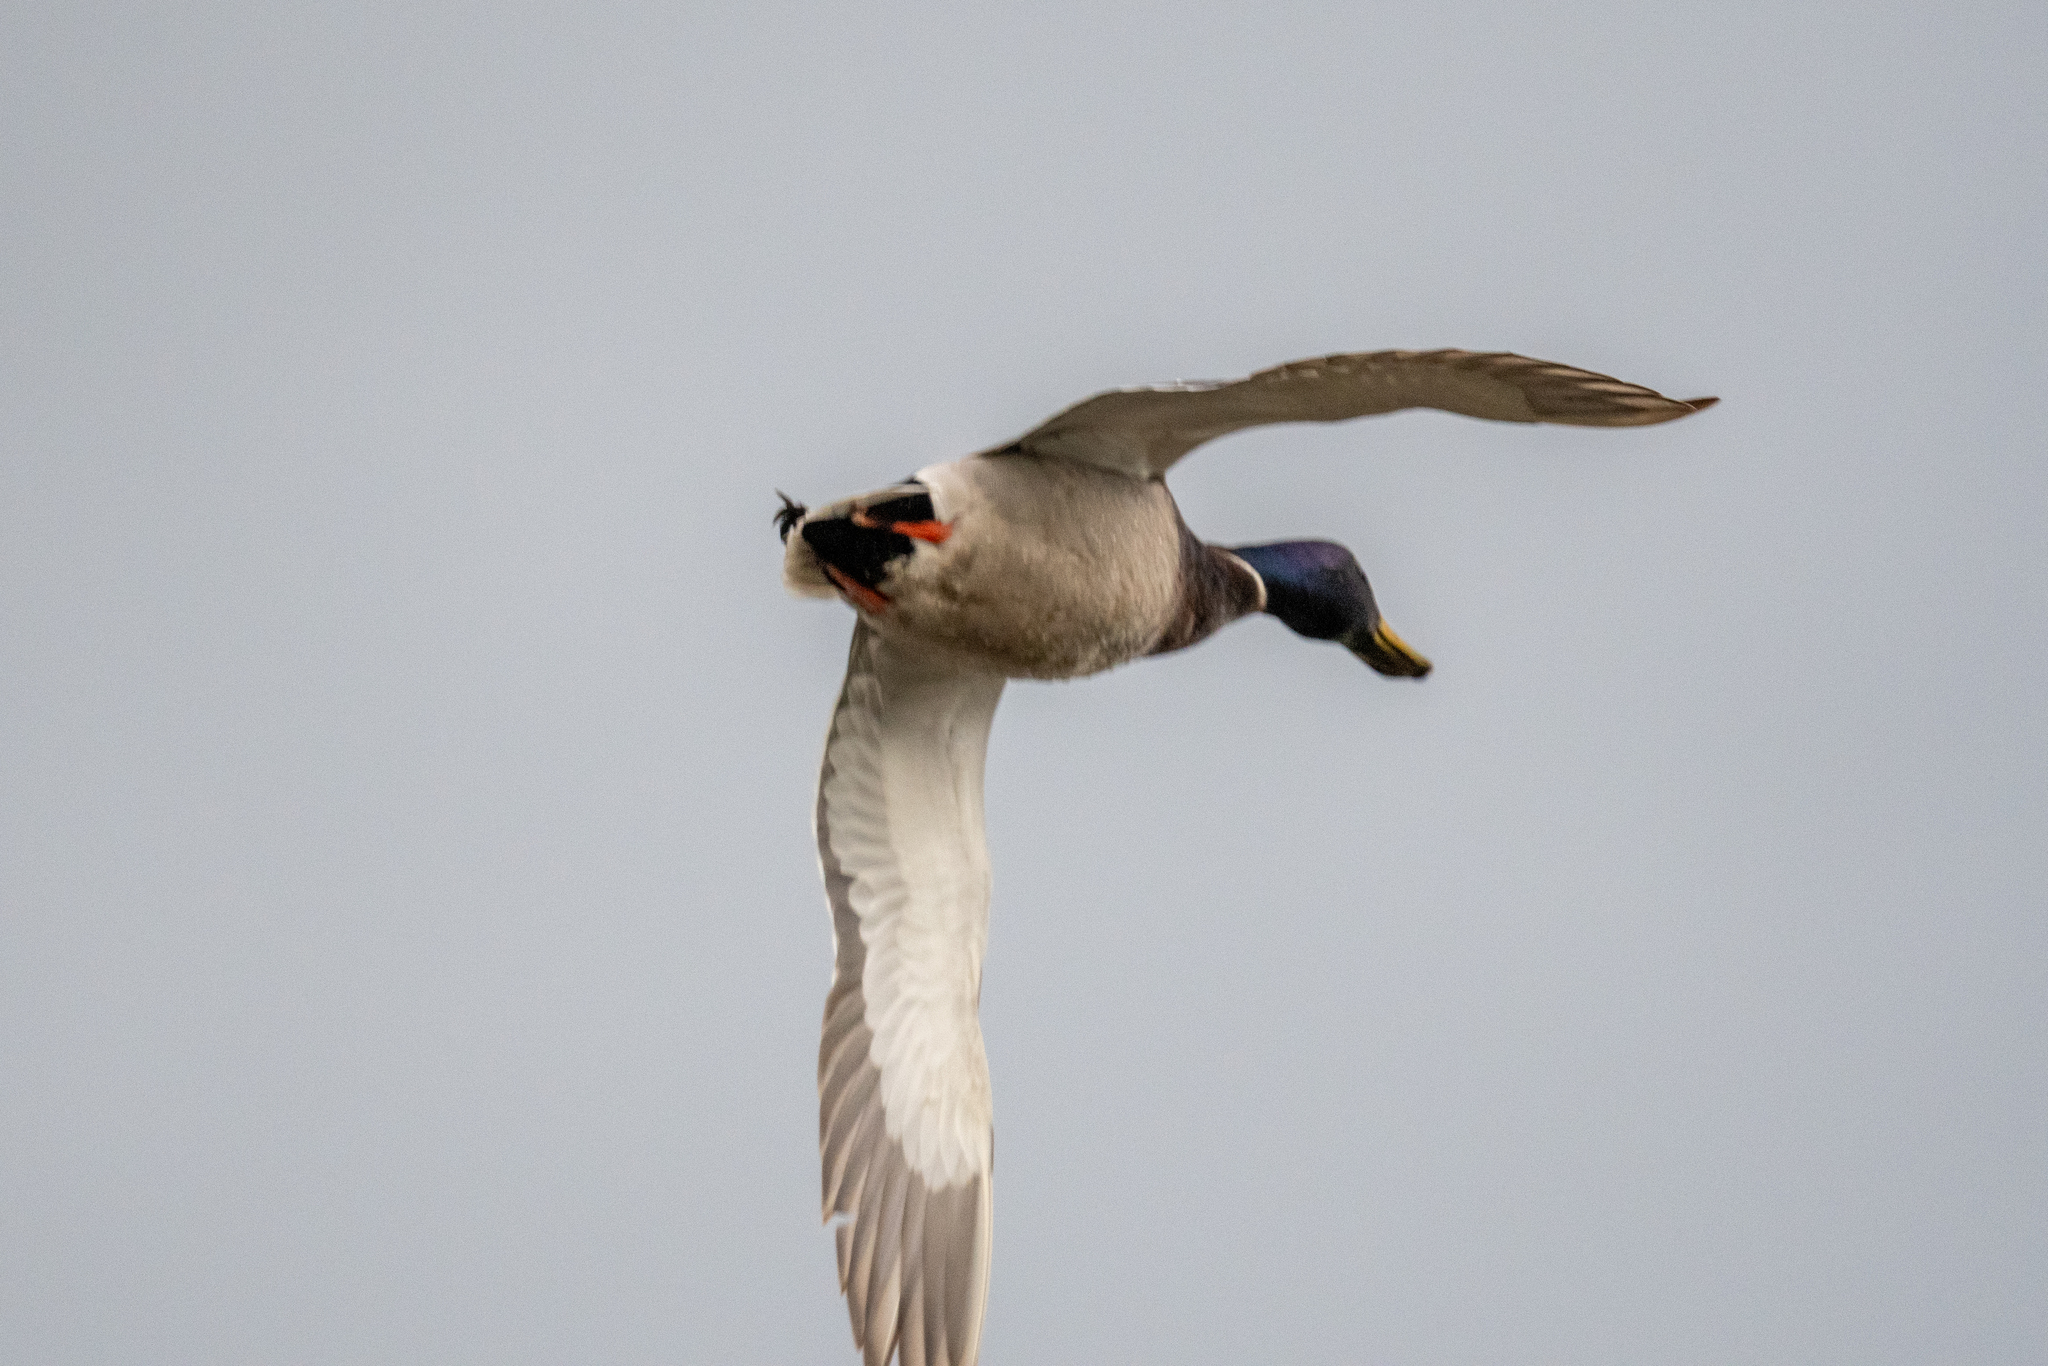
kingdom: Animalia
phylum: Chordata
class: Aves
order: Anseriformes
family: Anatidae
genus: Anas
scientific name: Anas platyrhynchos
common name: Mallard
